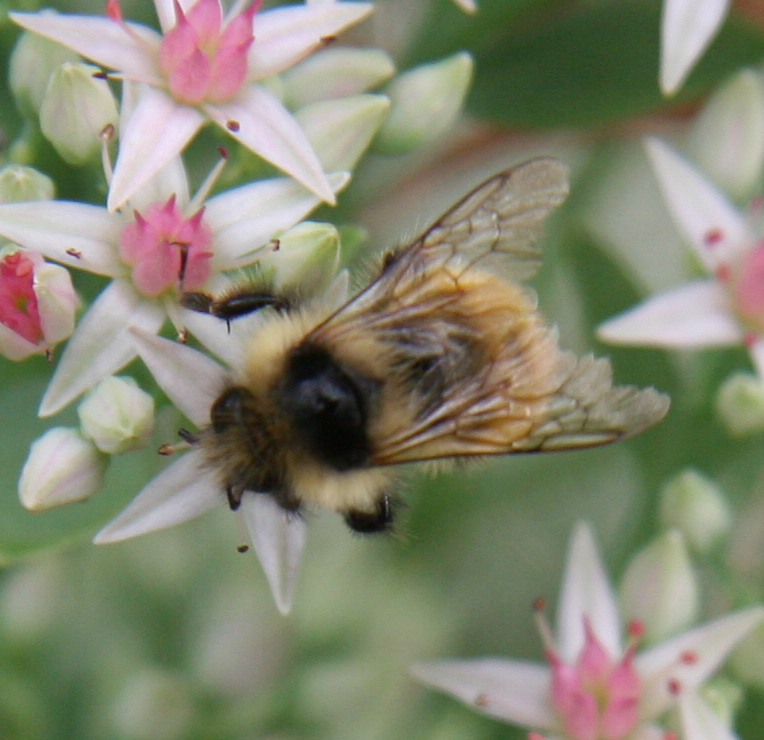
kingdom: Animalia
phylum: Arthropoda
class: Insecta
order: Hymenoptera
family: Apidae
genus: Bombus
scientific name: Bombus ternarius
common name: Tri-colored bumble bee
